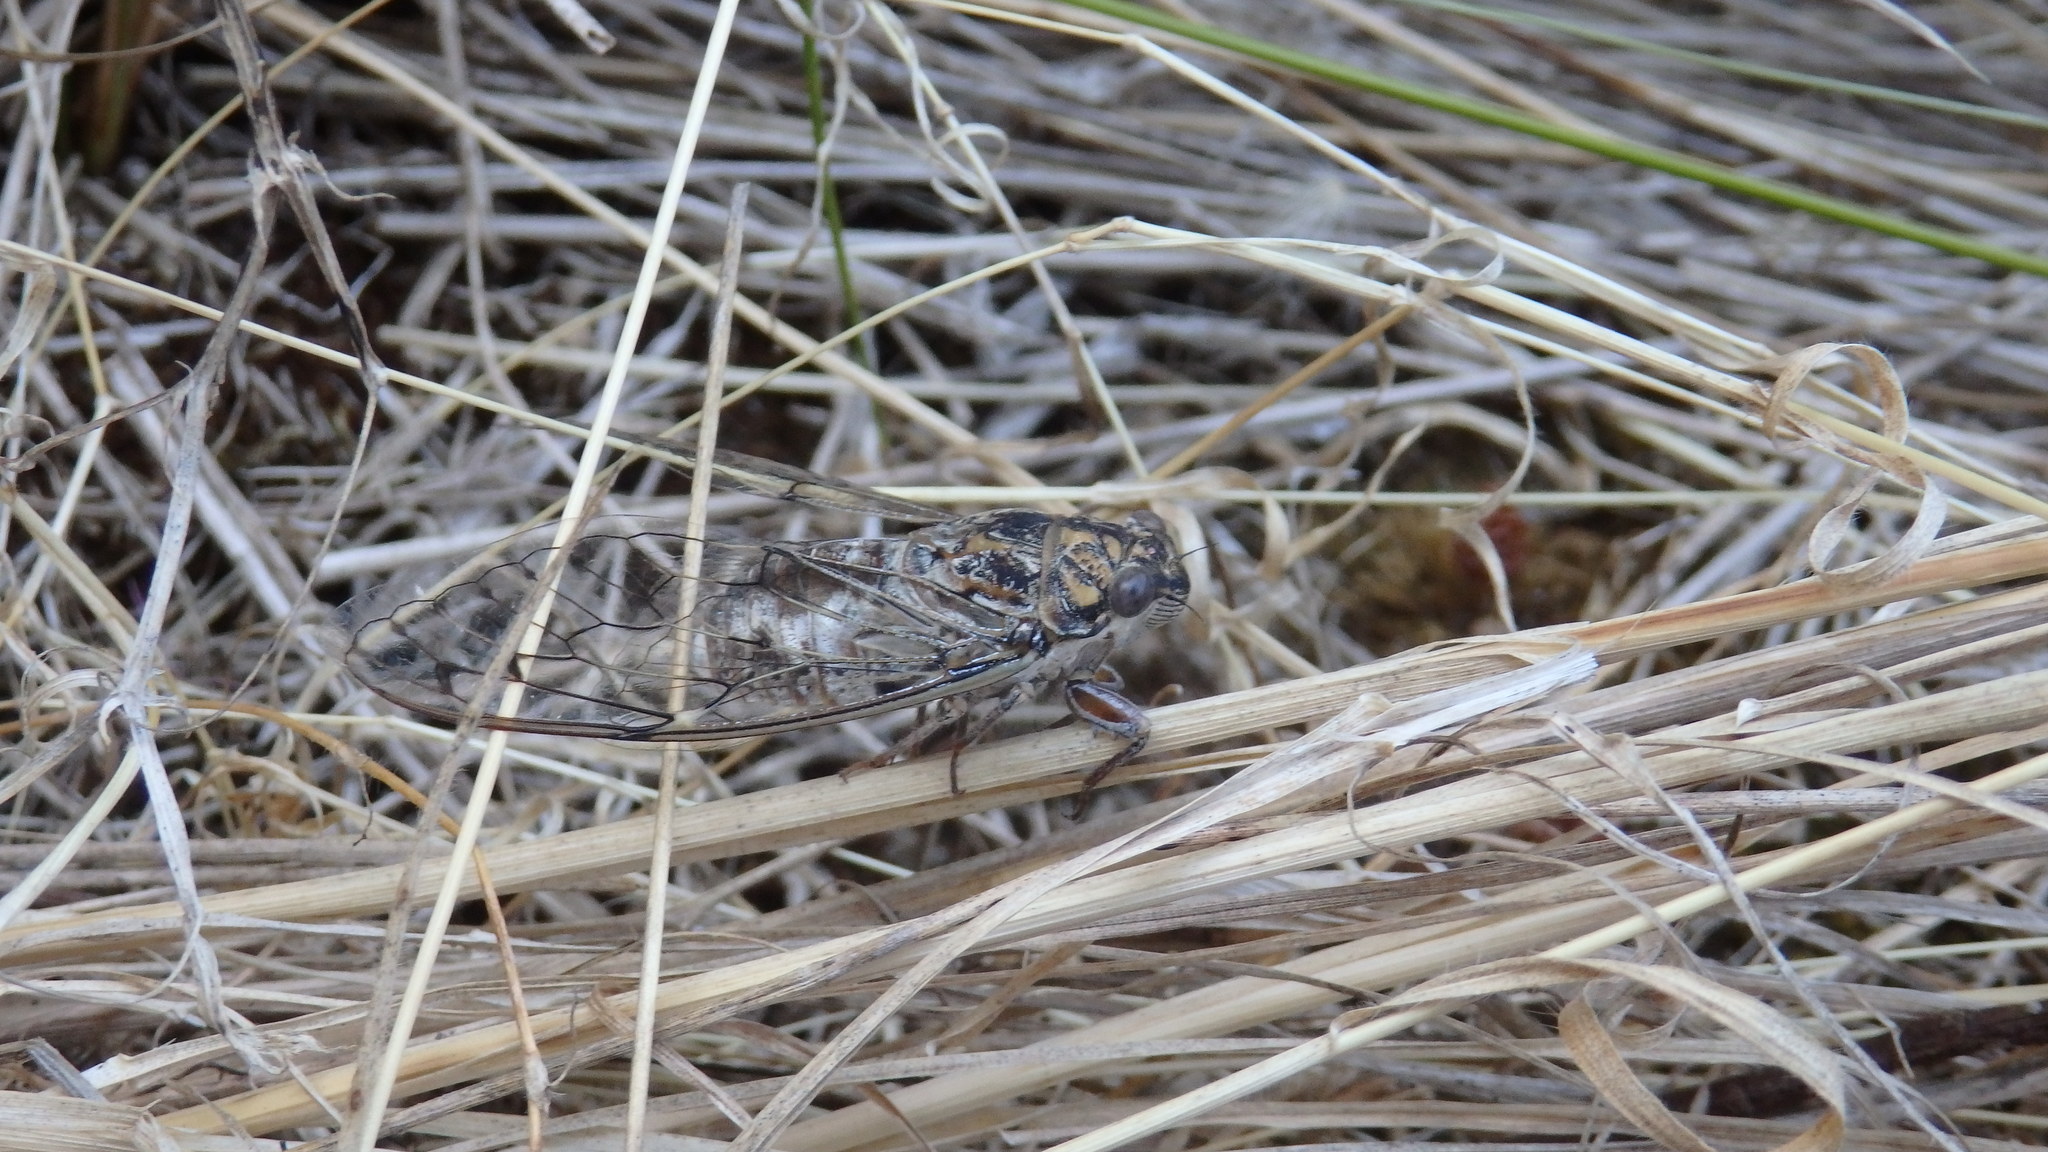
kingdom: Animalia
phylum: Arthropoda
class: Insecta
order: Hemiptera
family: Cicadidae
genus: Cicada
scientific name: Cicada orni
